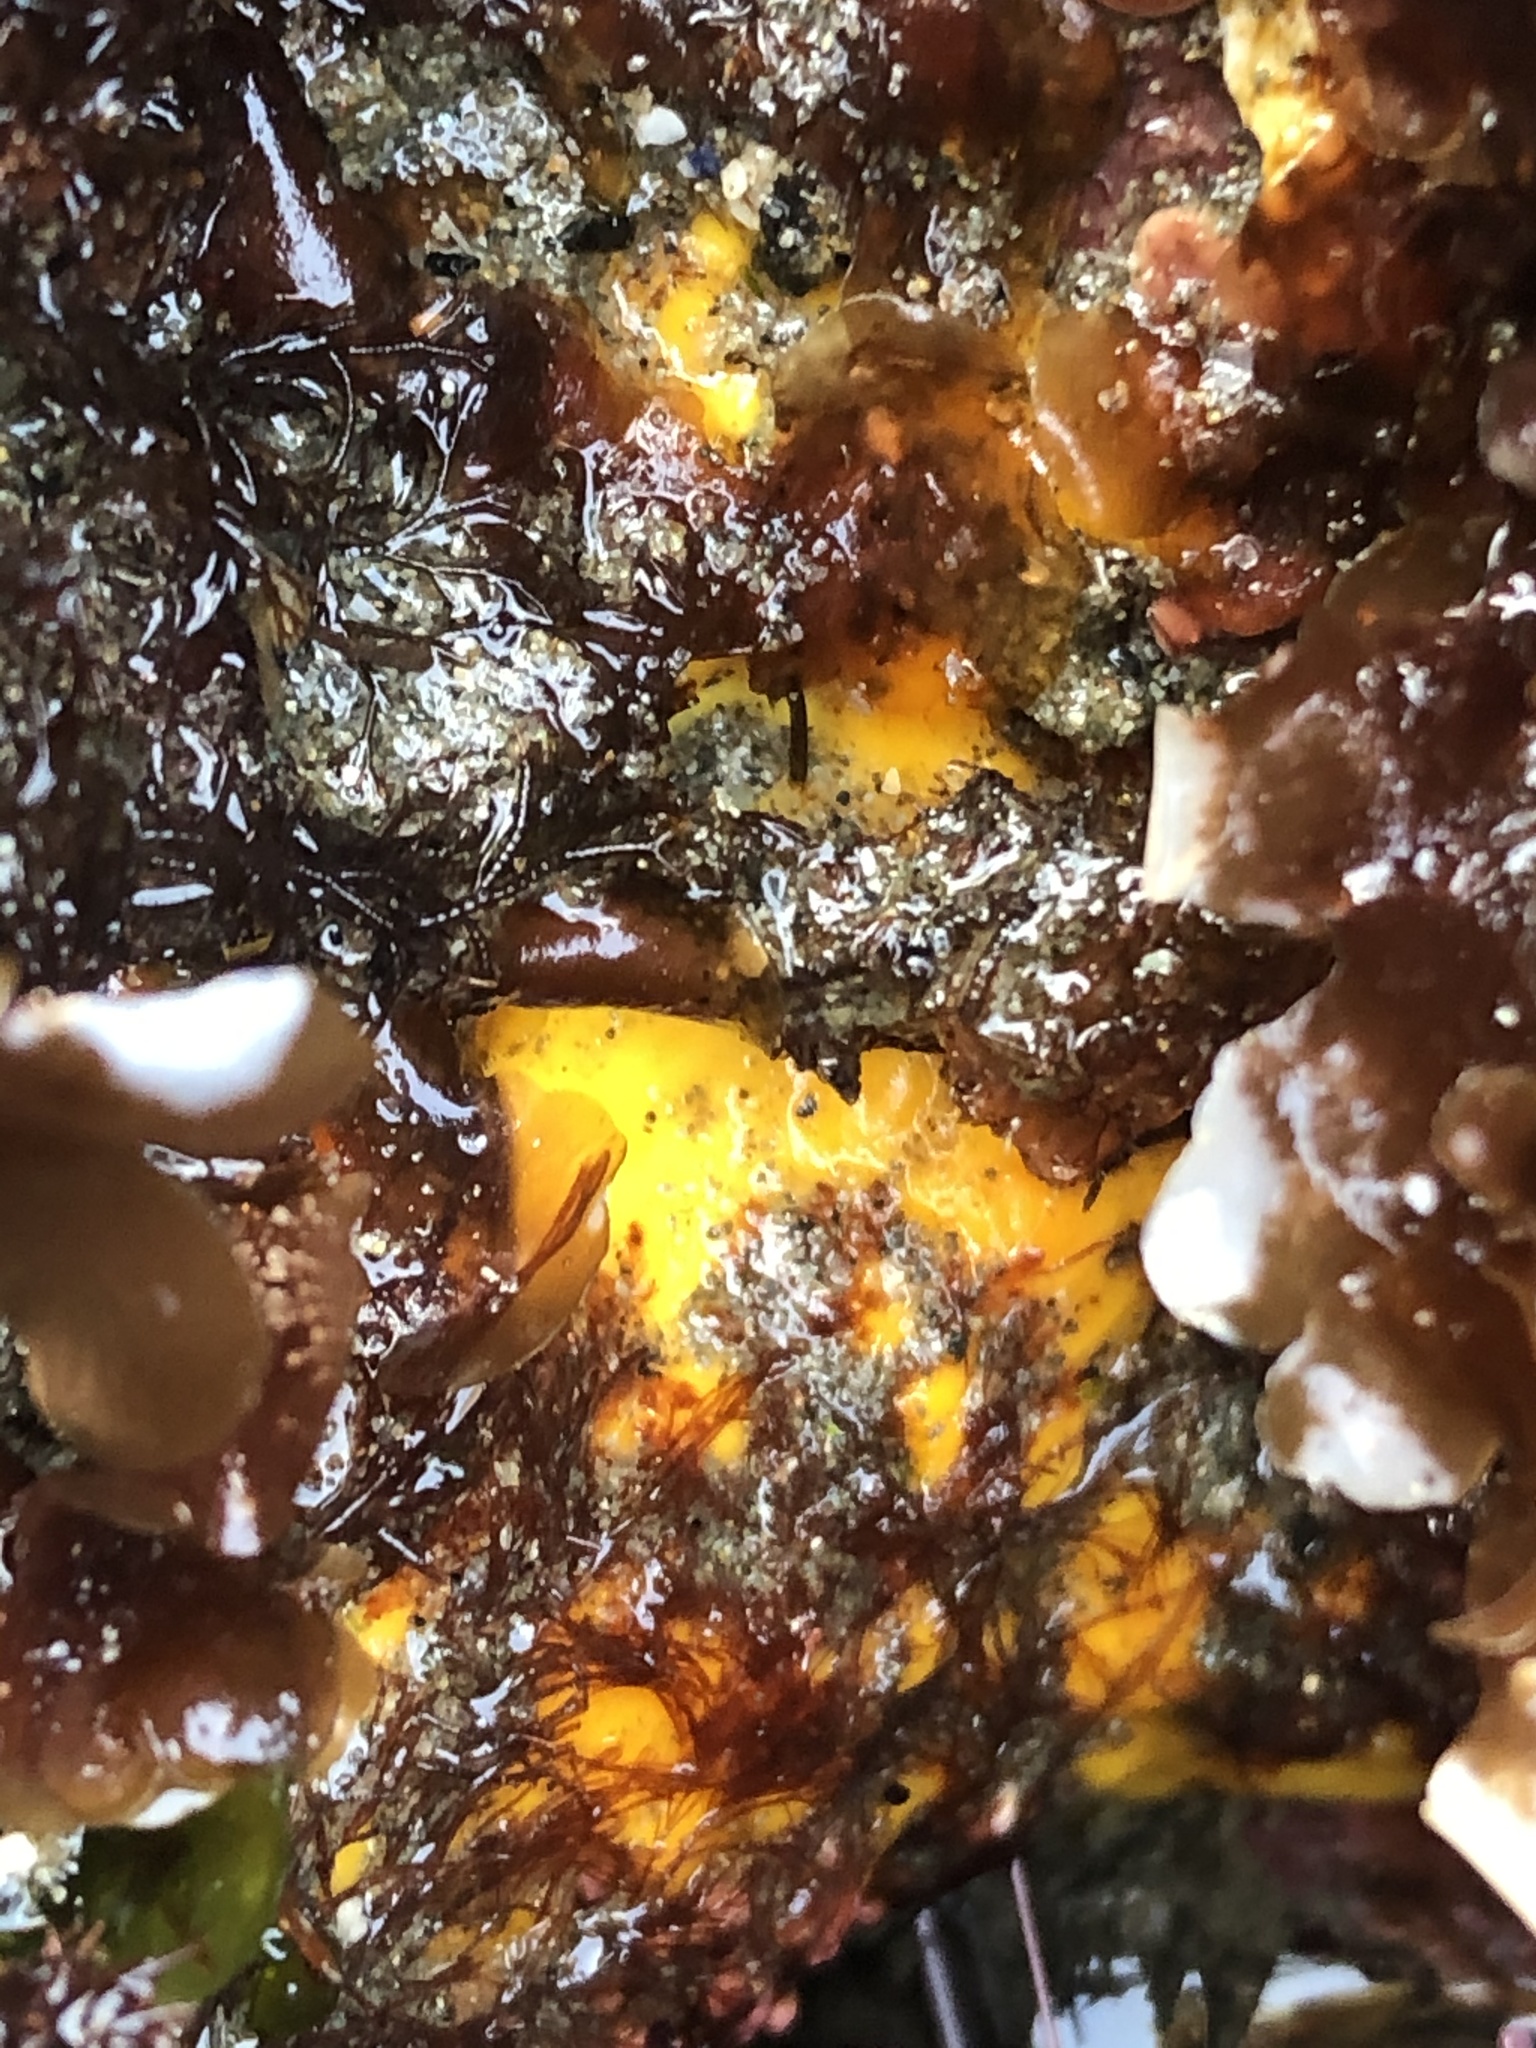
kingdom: Animalia
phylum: Porifera
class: Demospongiae
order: Clionaida
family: Clionaidae
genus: Cliona
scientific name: Cliona californiana
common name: California boring horny sponge
